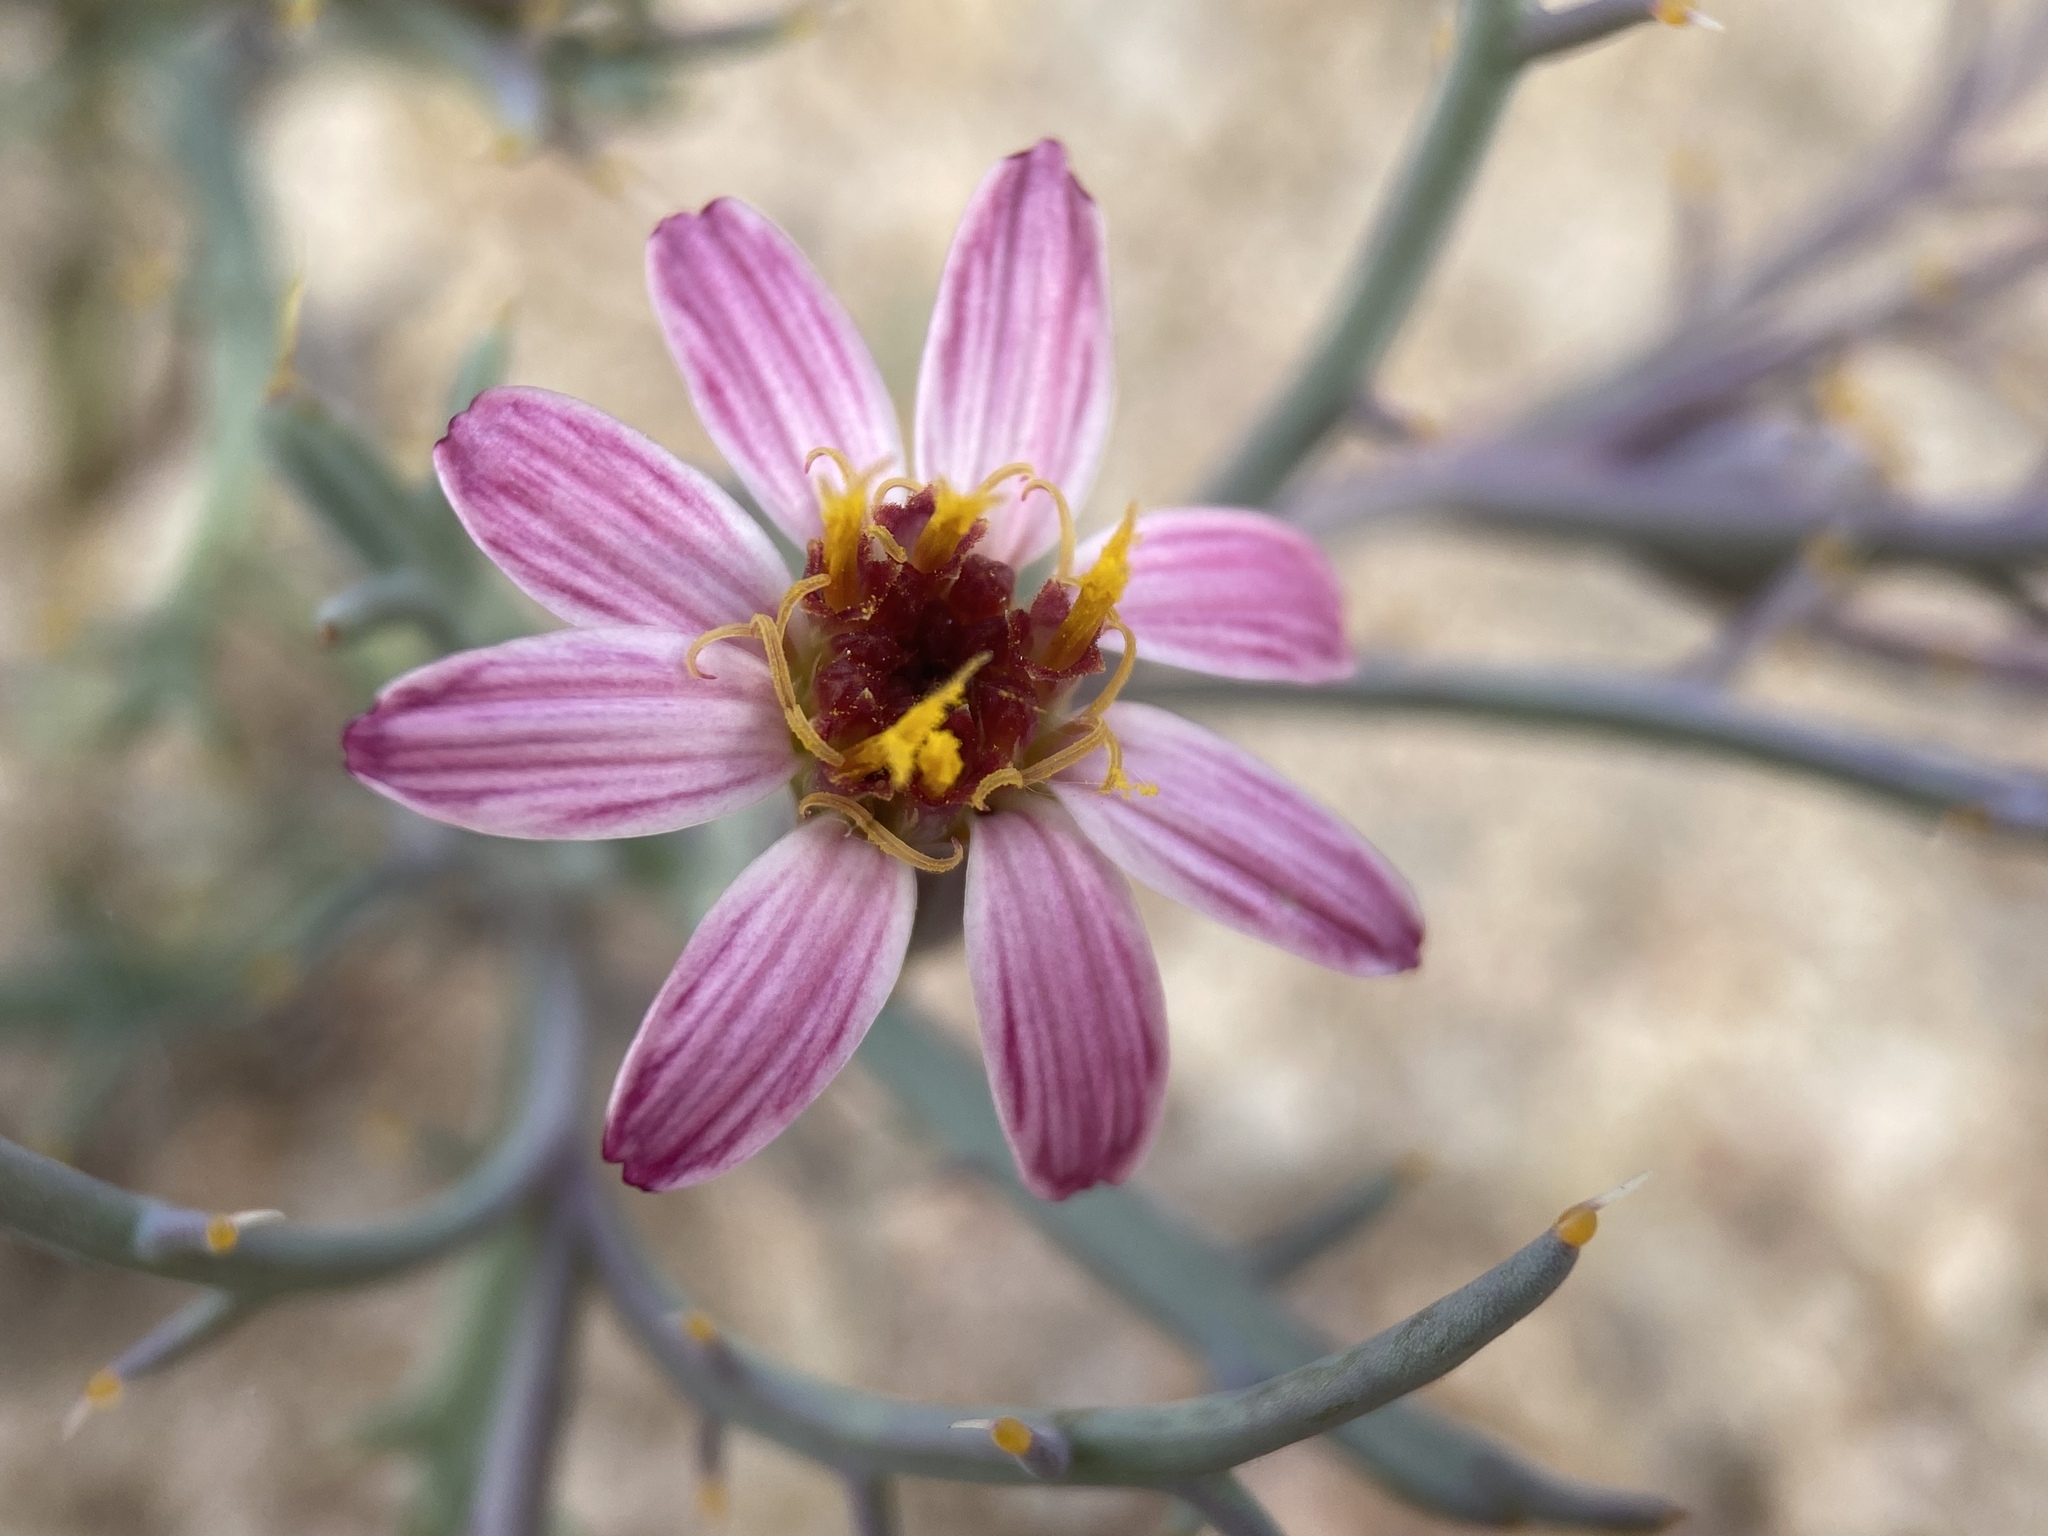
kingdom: Plantae
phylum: Tracheophyta
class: Magnoliopsida
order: Asterales
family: Asteraceae
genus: Nicolletia
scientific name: Nicolletia occidentalis
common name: Hole-in-the-sand-plant
